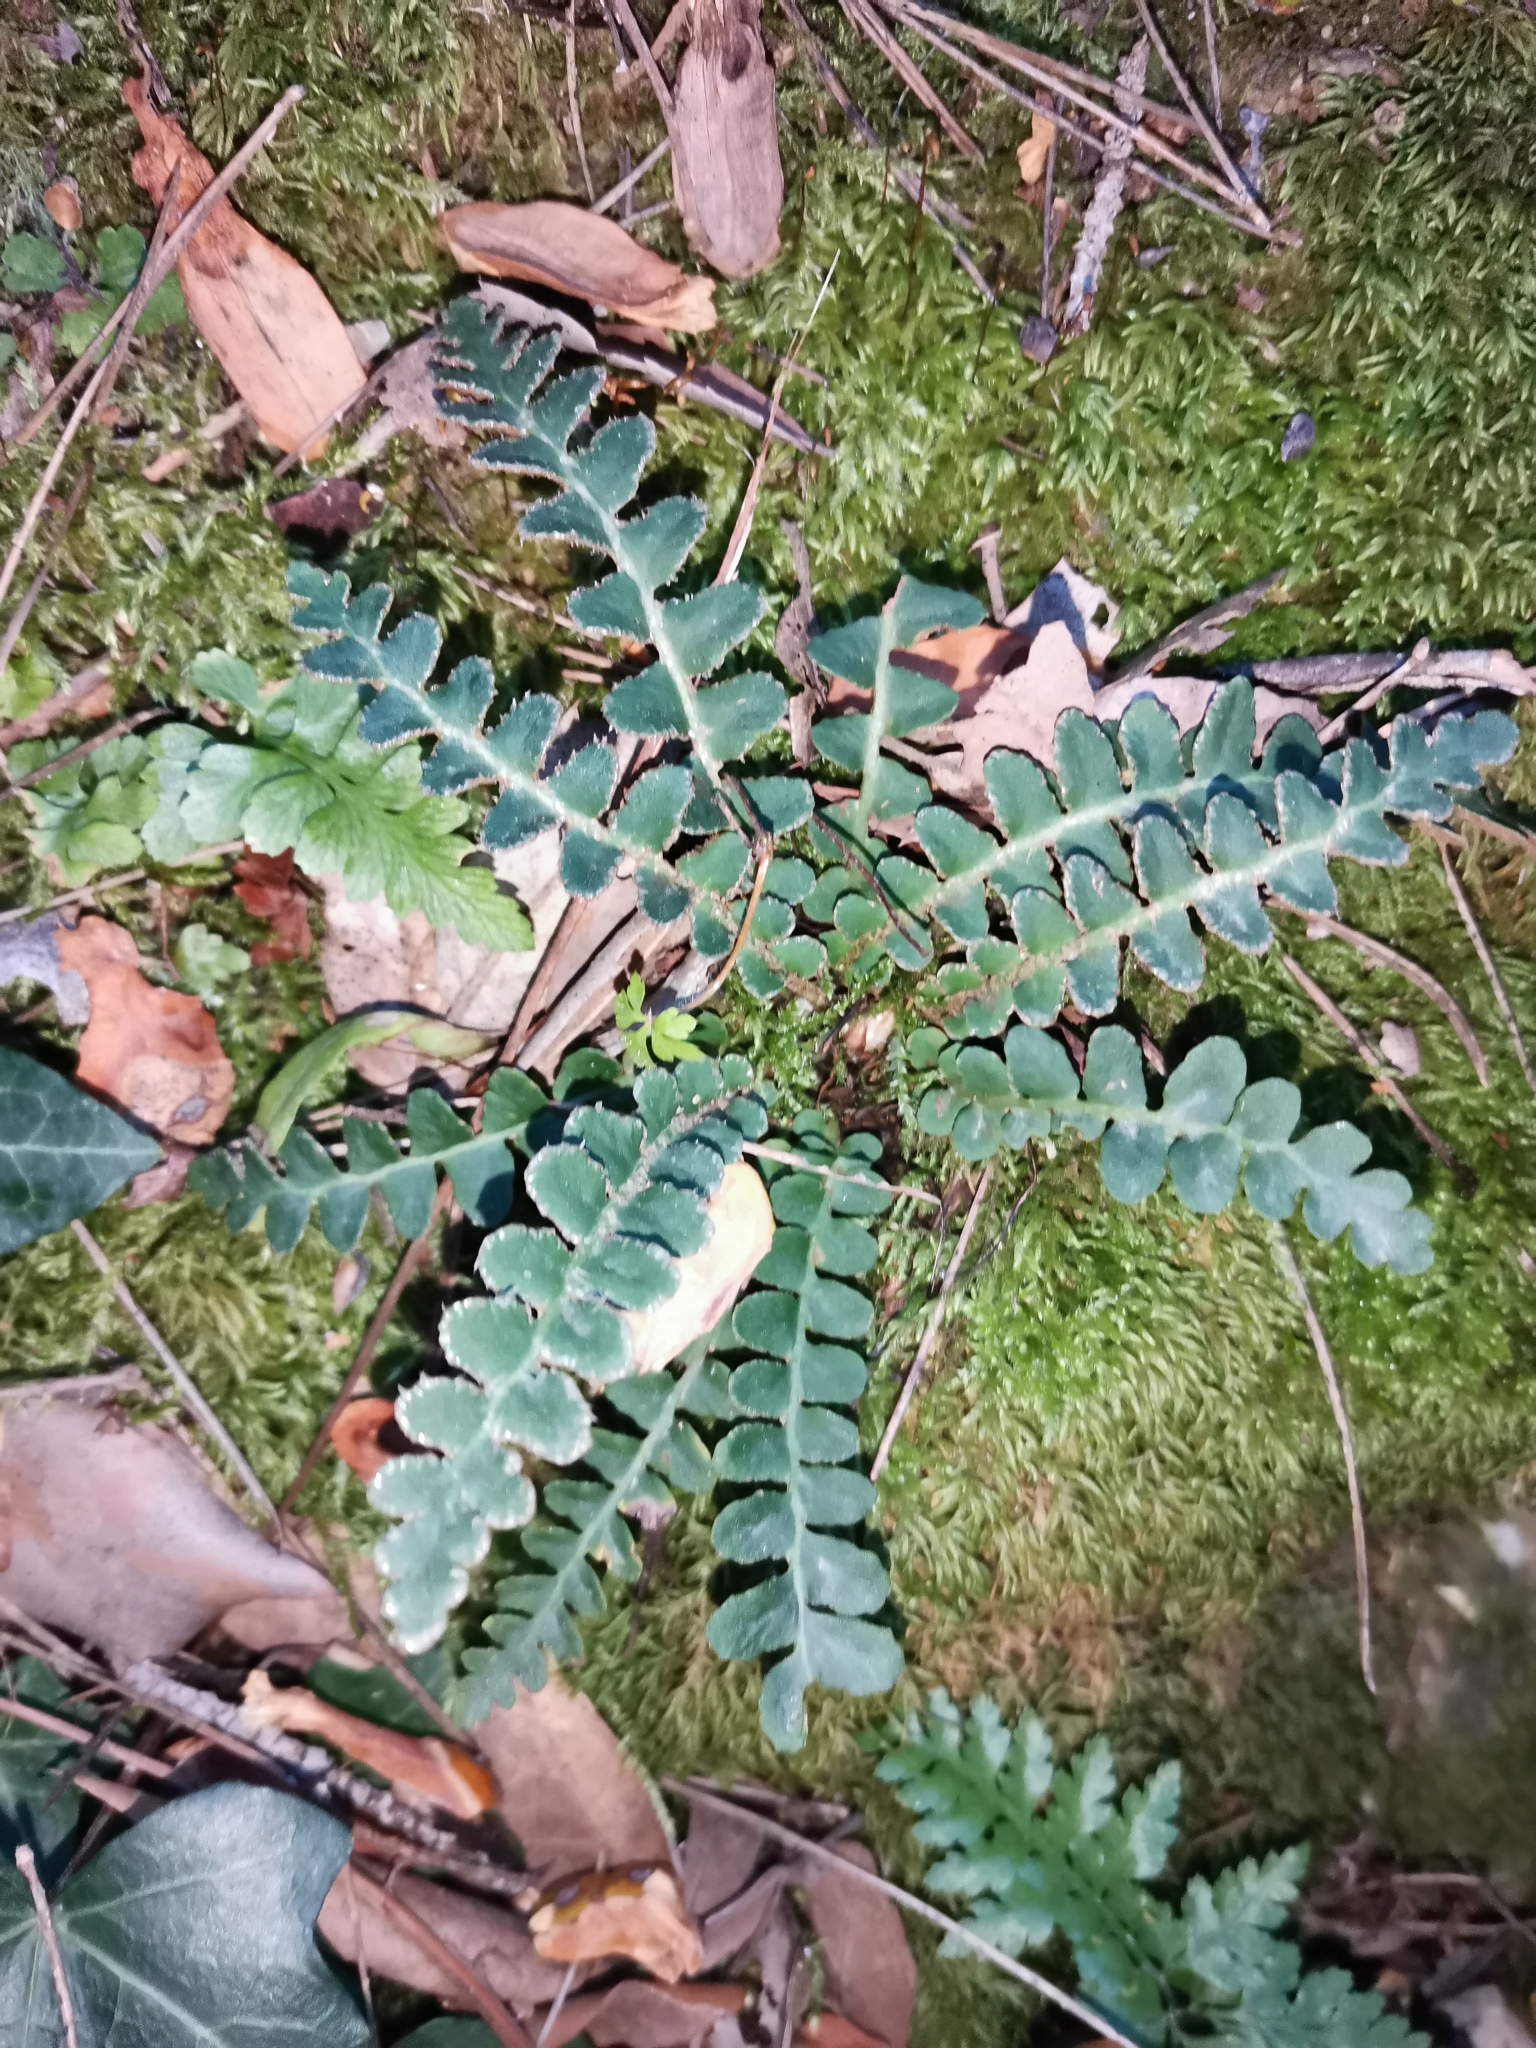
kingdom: Plantae
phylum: Tracheophyta
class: Polypodiopsida
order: Polypodiales
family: Aspleniaceae
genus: Asplenium
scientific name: Asplenium ceterach
